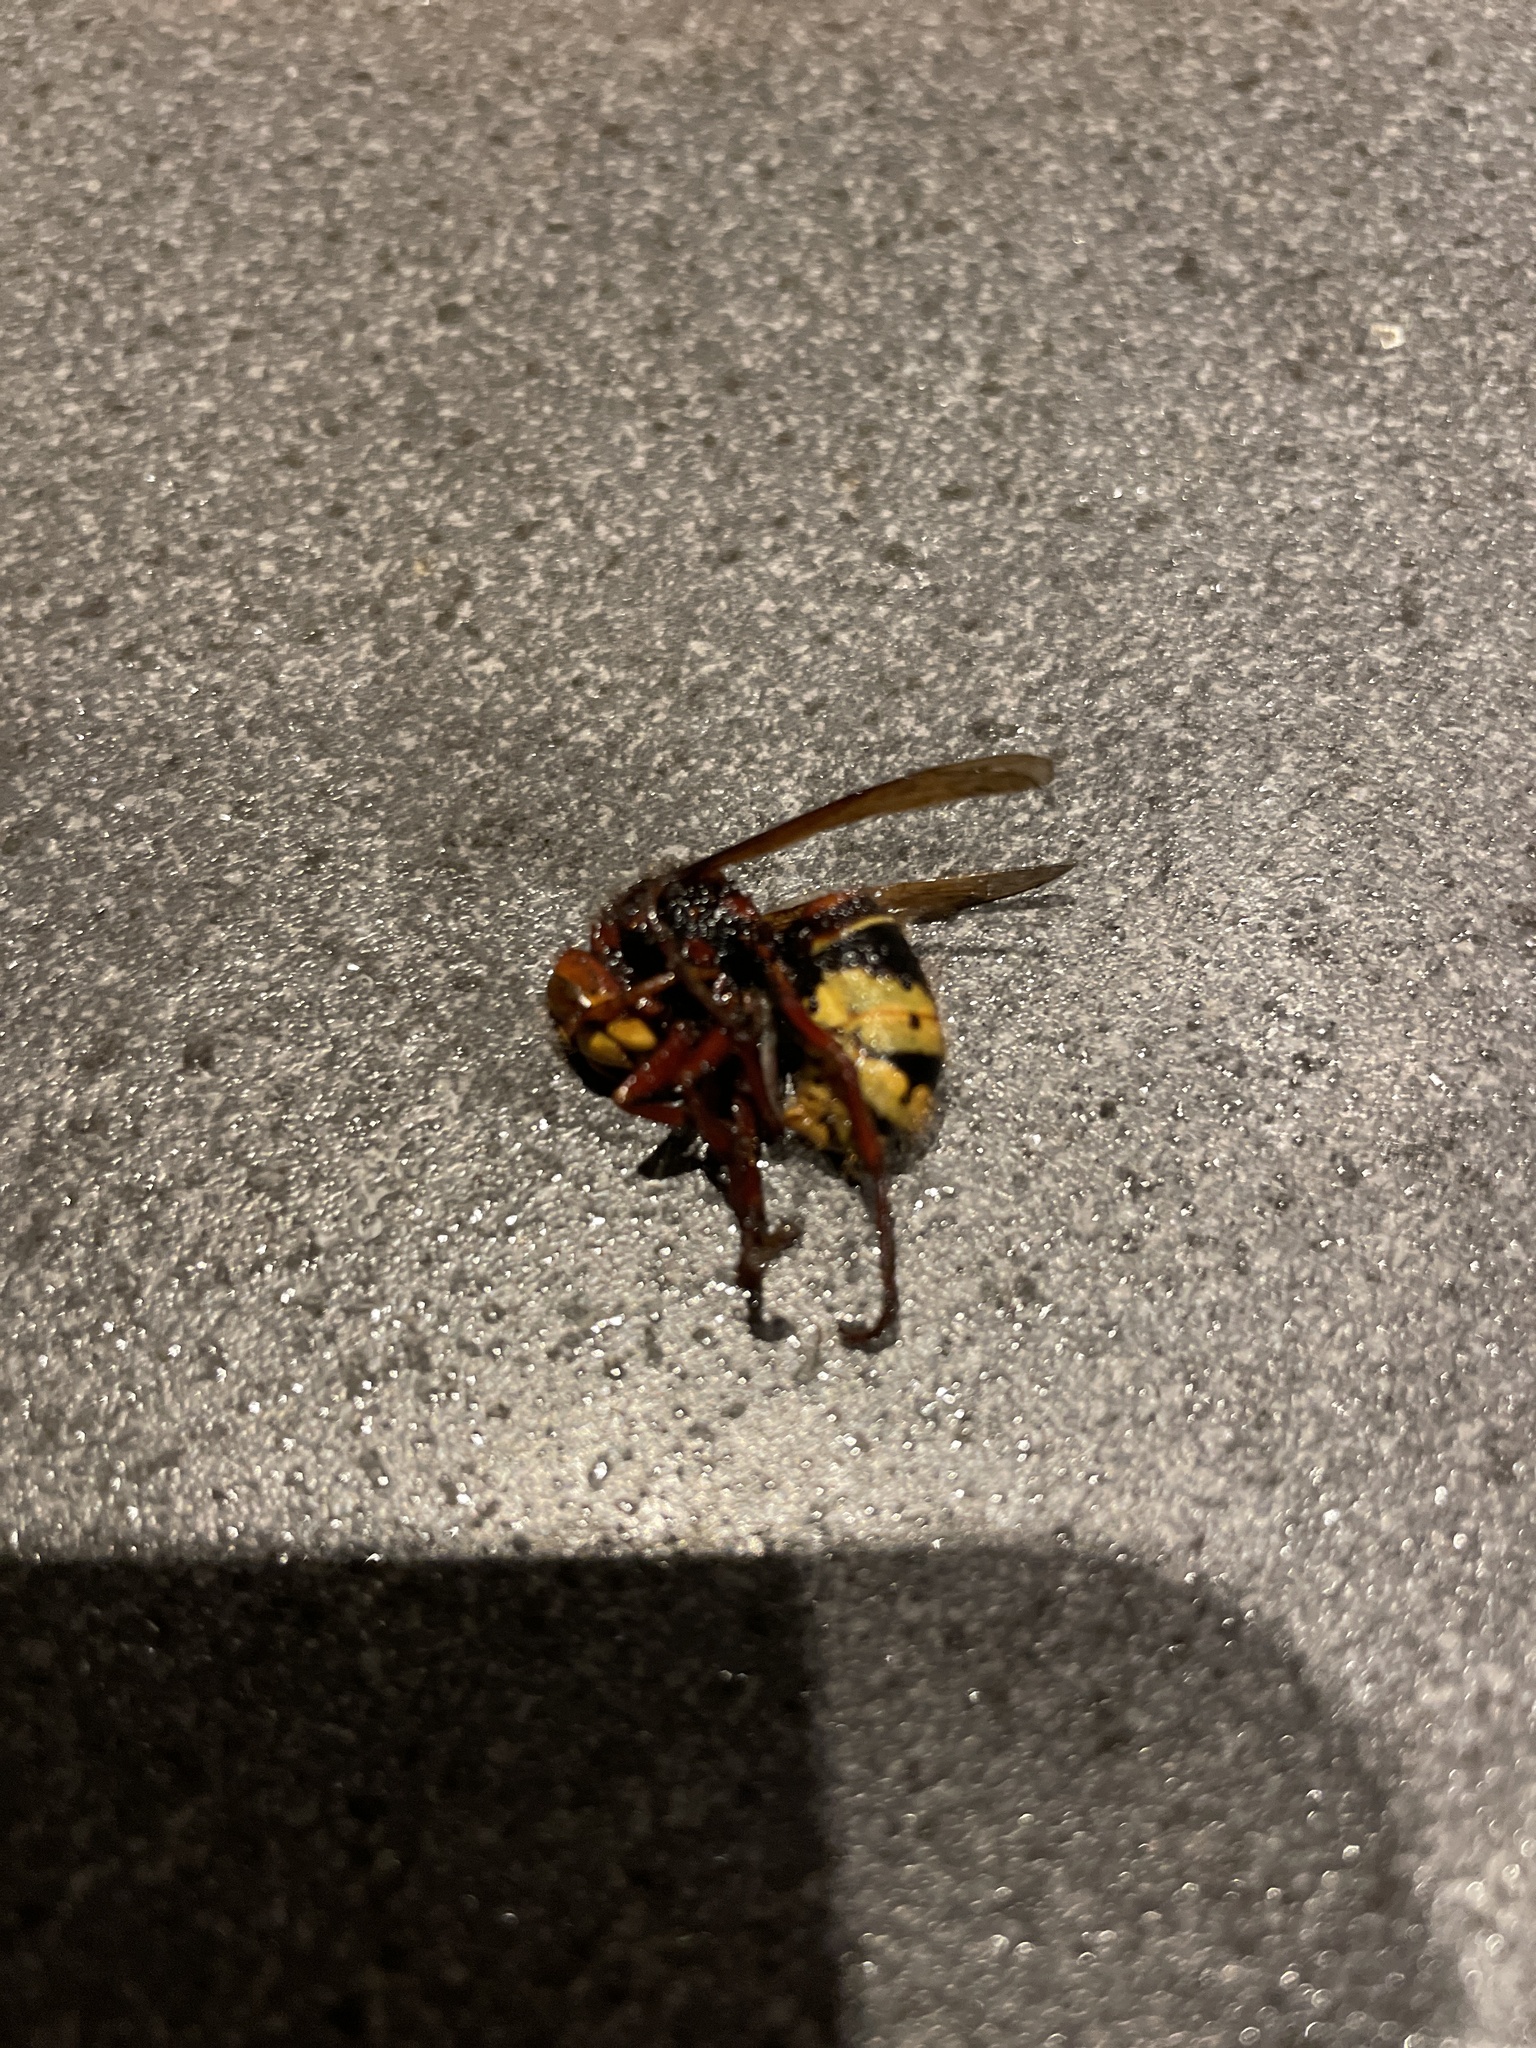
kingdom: Animalia
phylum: Arthropoda
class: Insecta
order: Hymenoptera
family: Vespidae
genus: Vespa
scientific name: Vespa crabro
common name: Hornet
